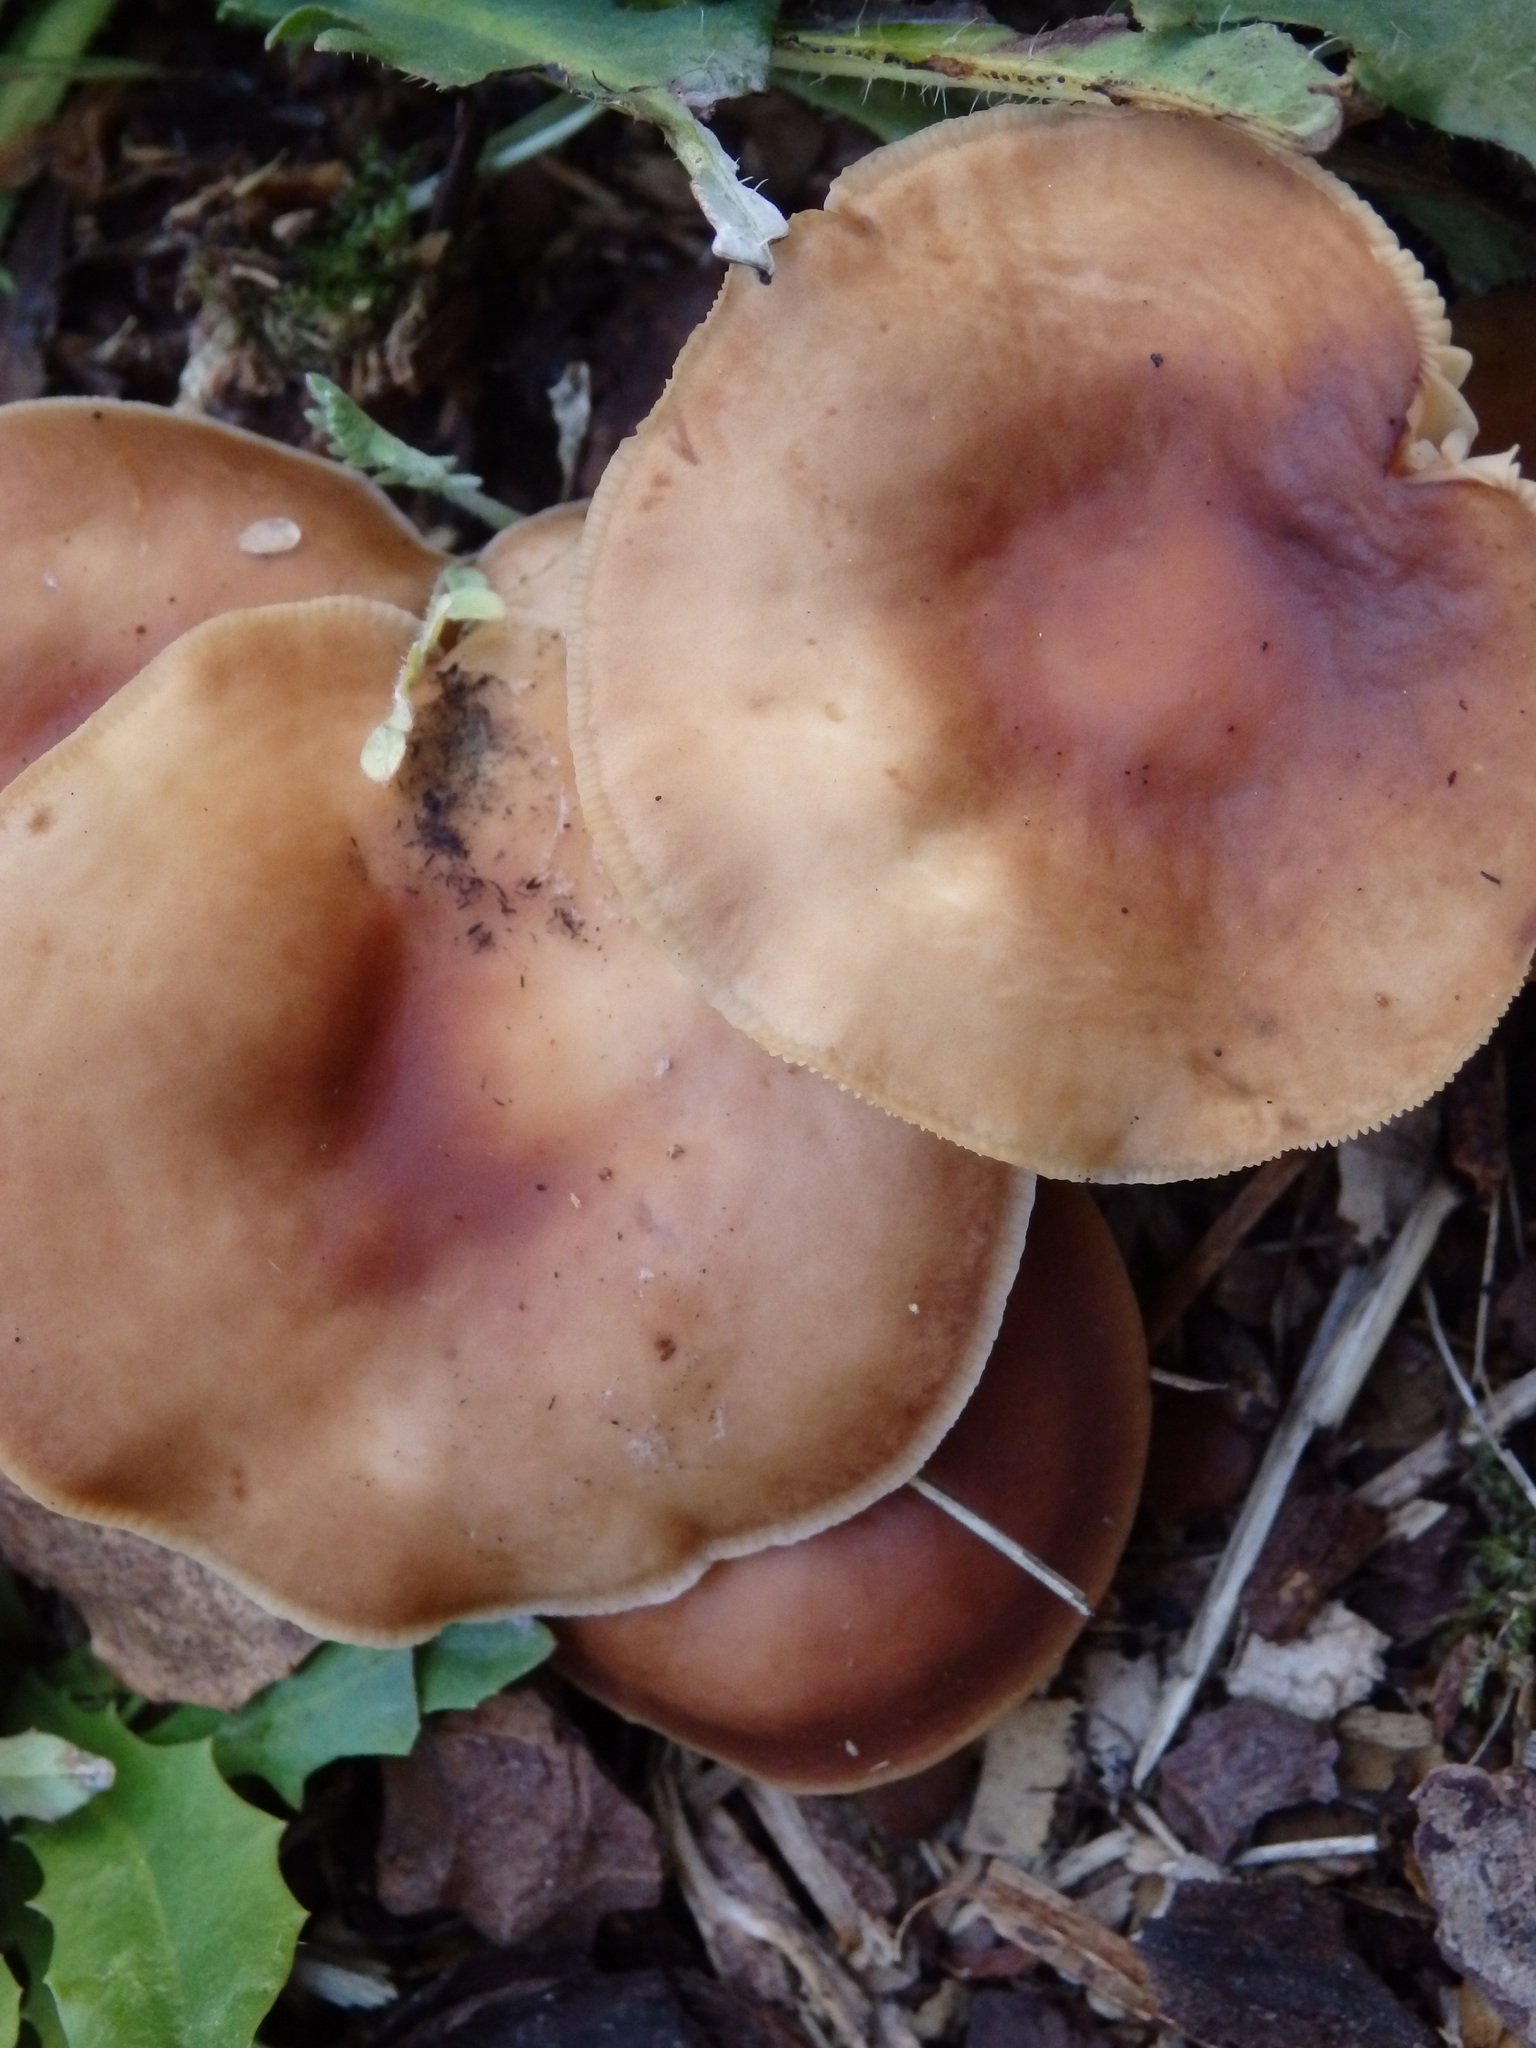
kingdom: Fungi
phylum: Basidiomycota
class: Agaricomycetes
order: Agaricales
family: Omphalotaceae
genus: Rhodocollybia
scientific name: Rhodocollybia butyracea
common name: Butter cap
